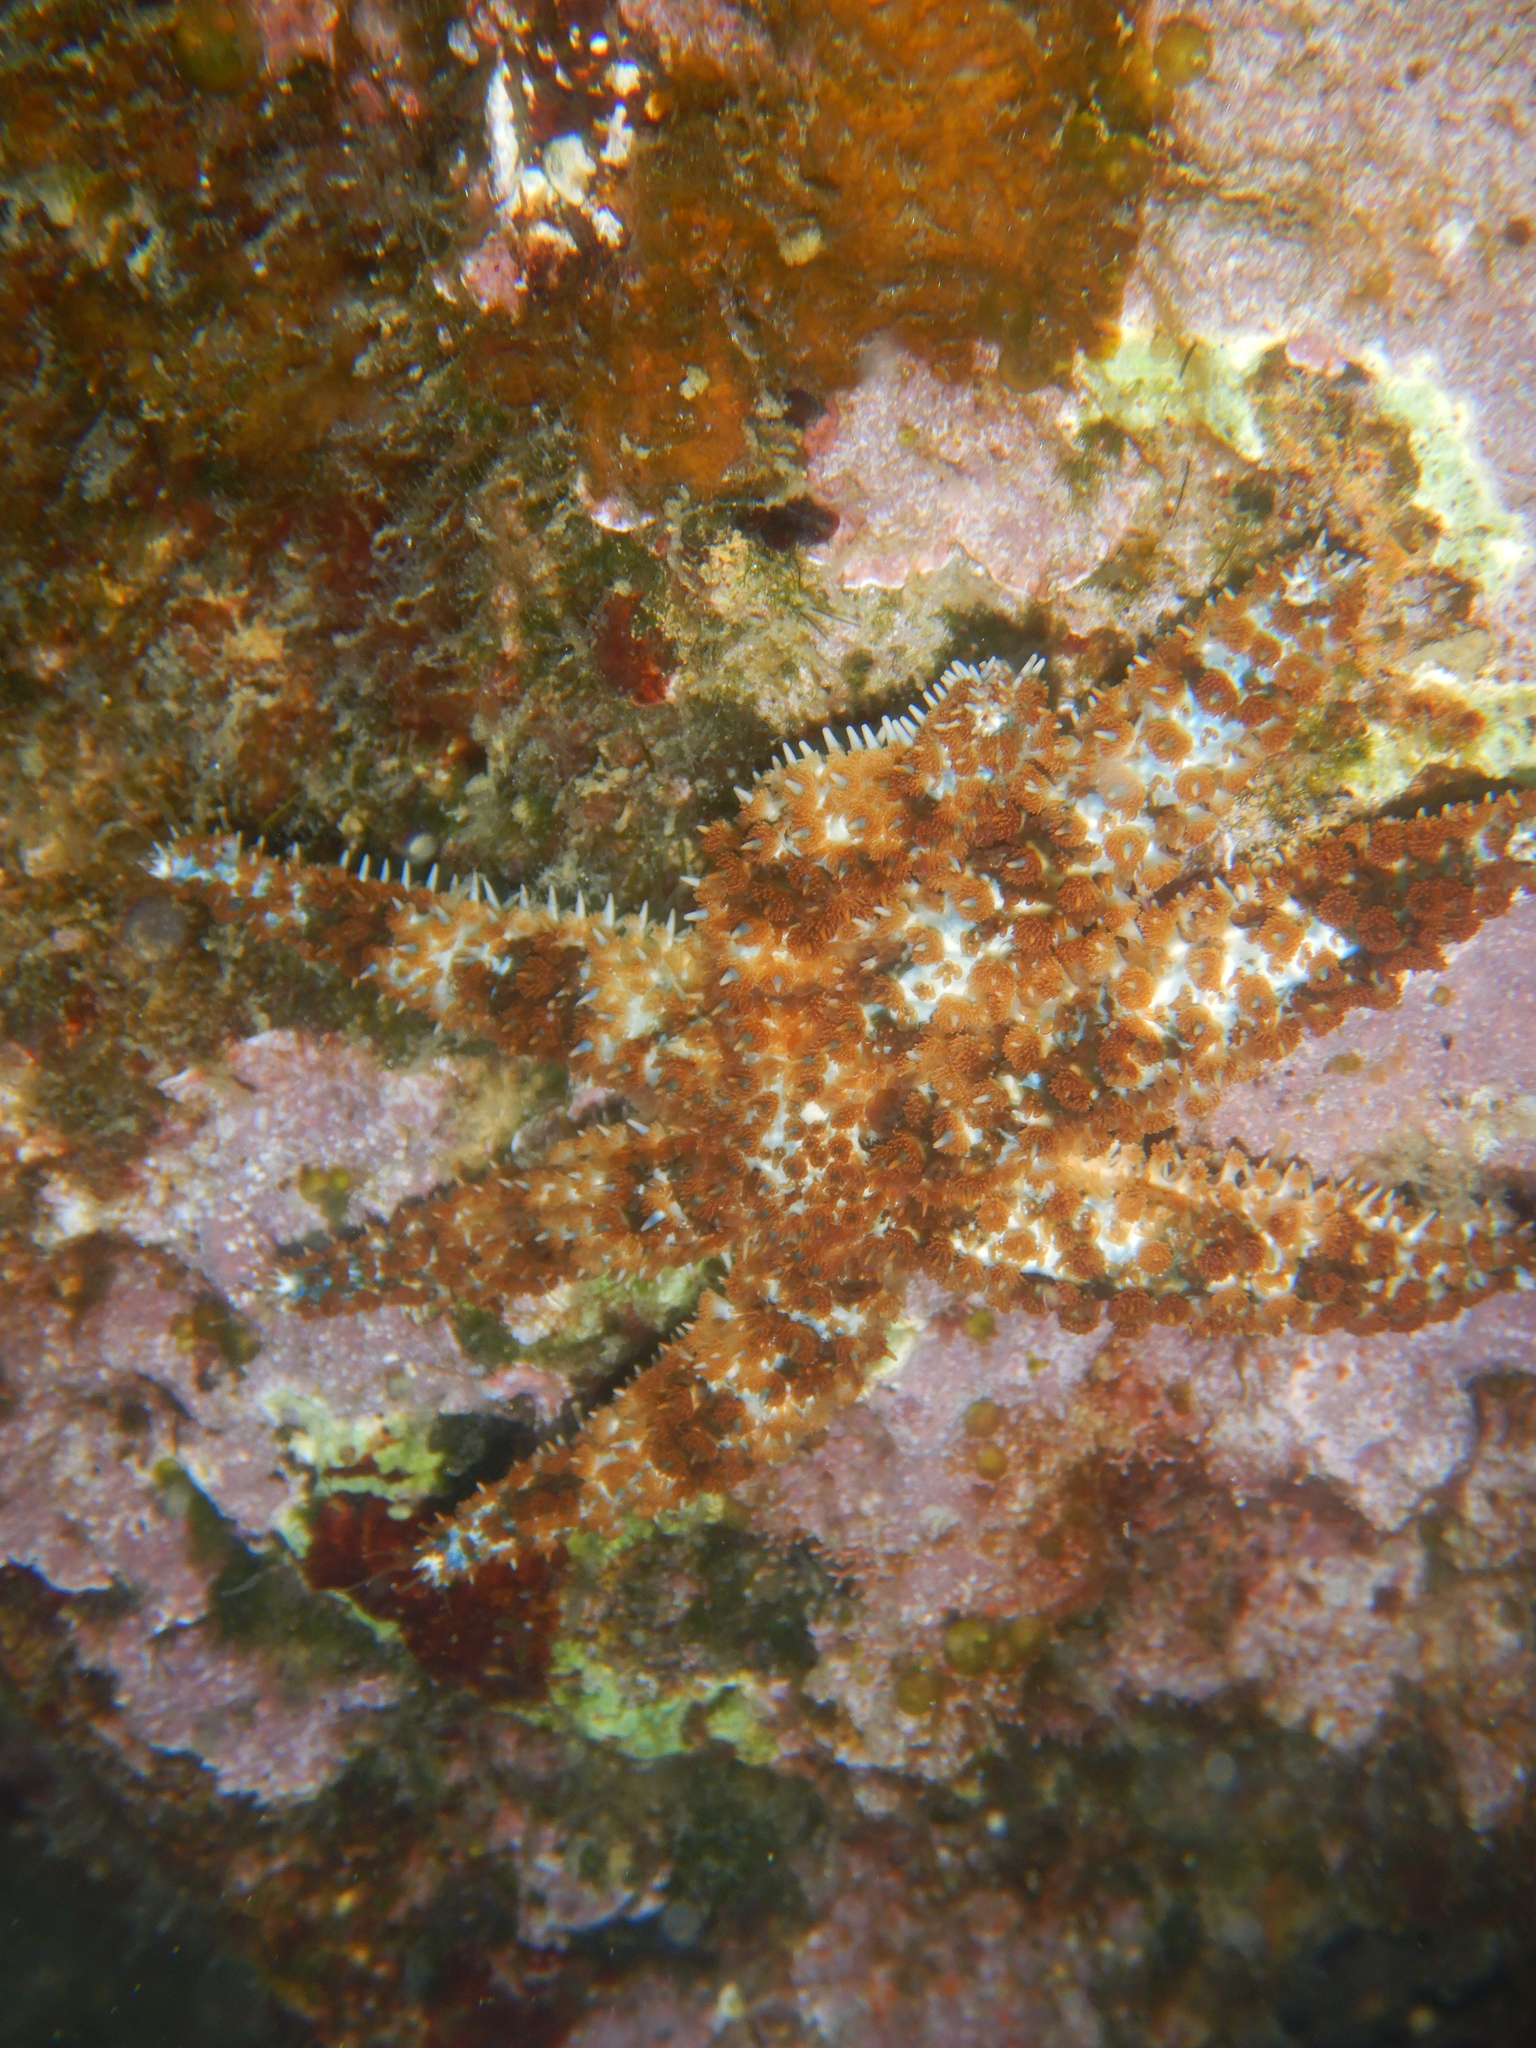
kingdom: Animalia
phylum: Echinodermata
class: Asteroidea
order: Forcipulatida
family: Asteriidae
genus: Coscinasterias
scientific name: Coscinasterias tenuispina
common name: Blue spiny starfish
